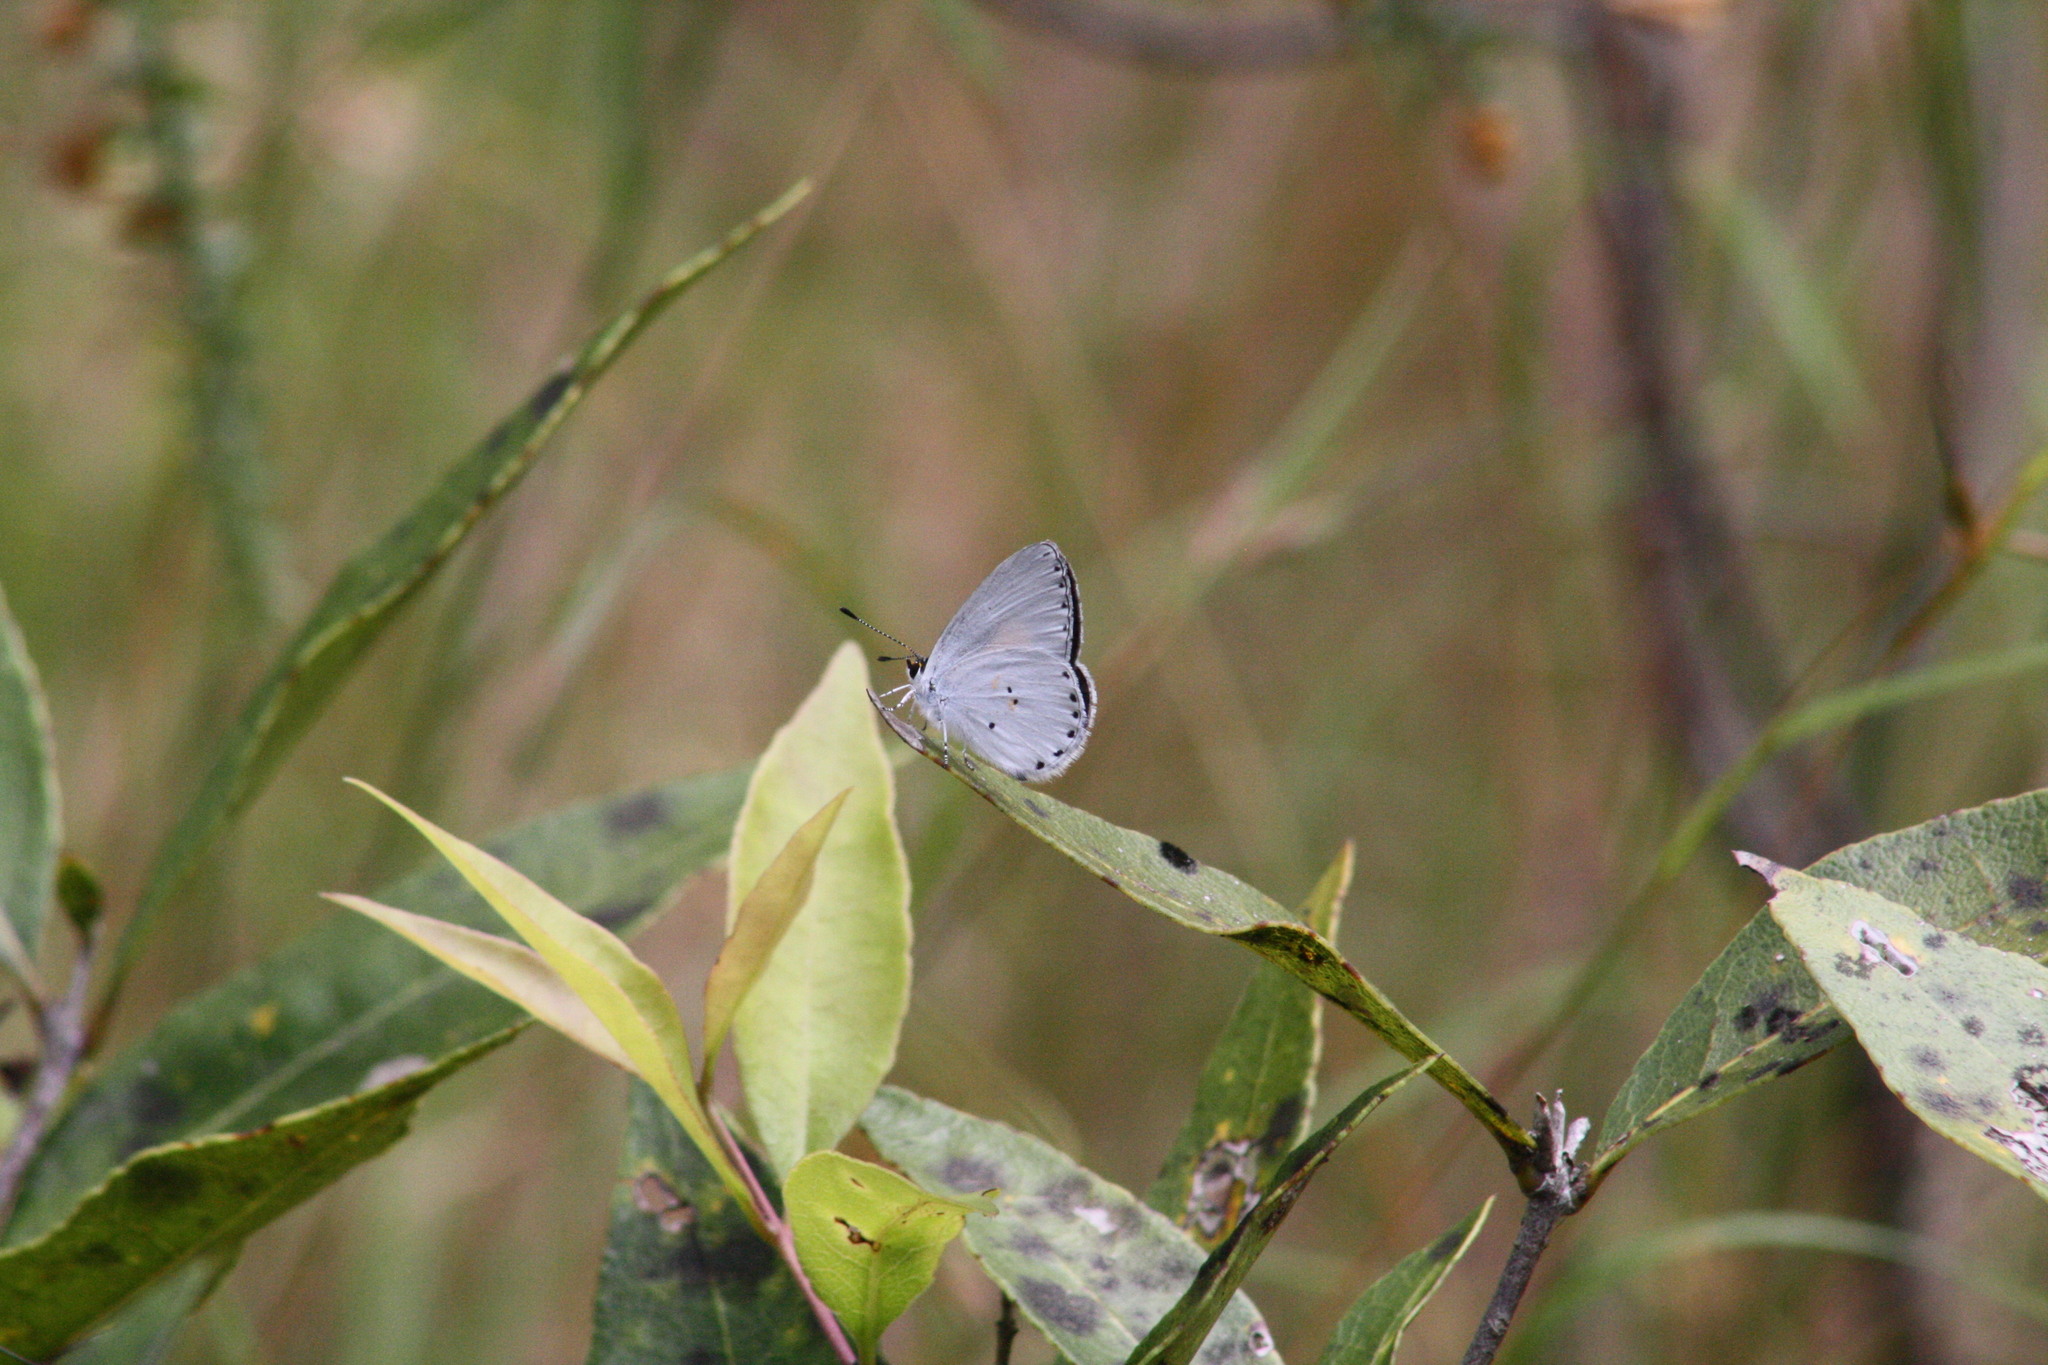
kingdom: Animalia
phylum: Arthropoda
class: Insecta
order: Lepidoptera
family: Lycaenidae
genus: Candalides
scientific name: Candalides xanthospilos
